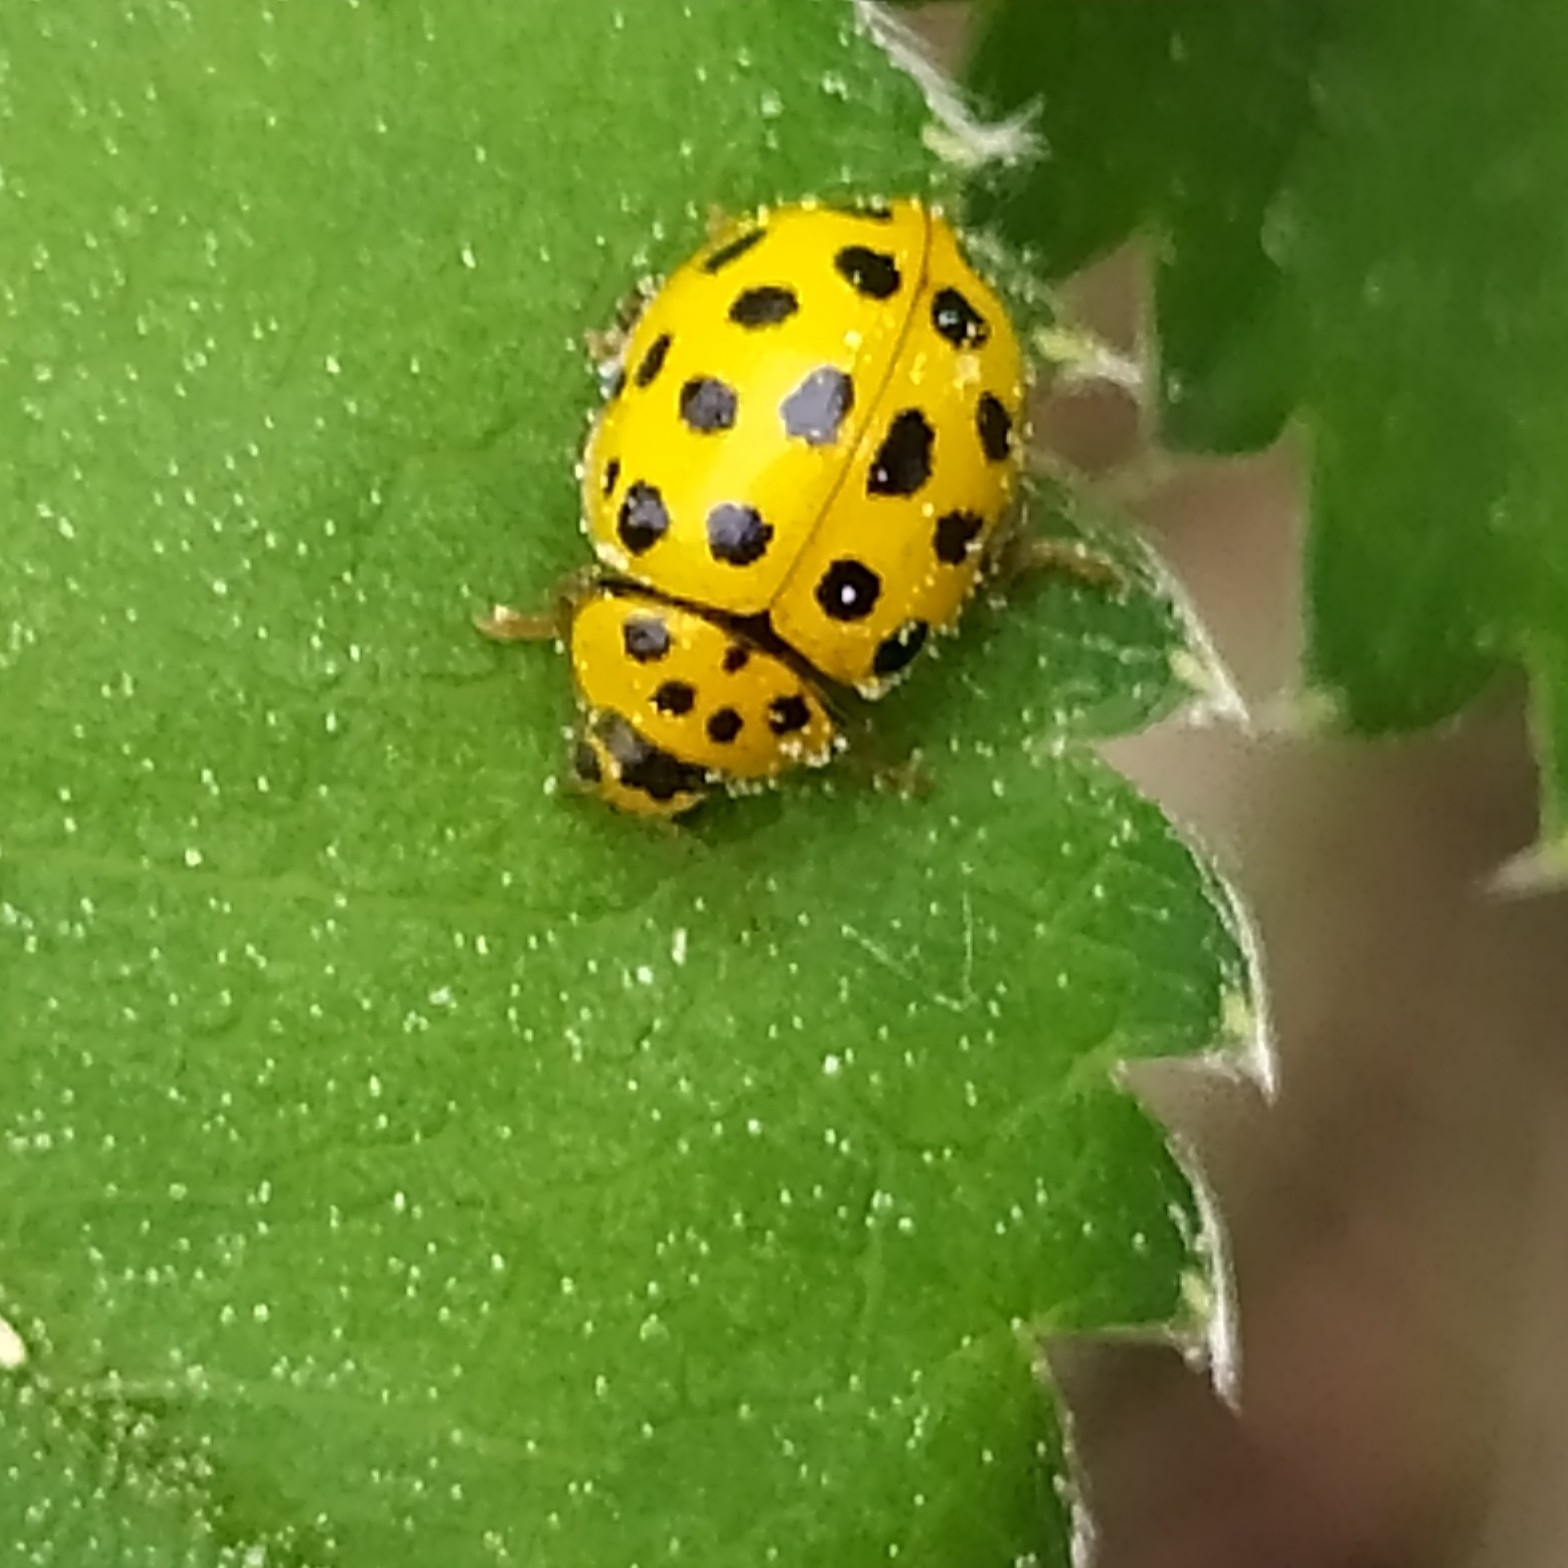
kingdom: Animalia
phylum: Arthropoda
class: Insecta
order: Coleoptera
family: Coccinellidae
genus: Psyllobora
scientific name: Psyllobora vigintiduopunctata
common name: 22-spot ladybird
